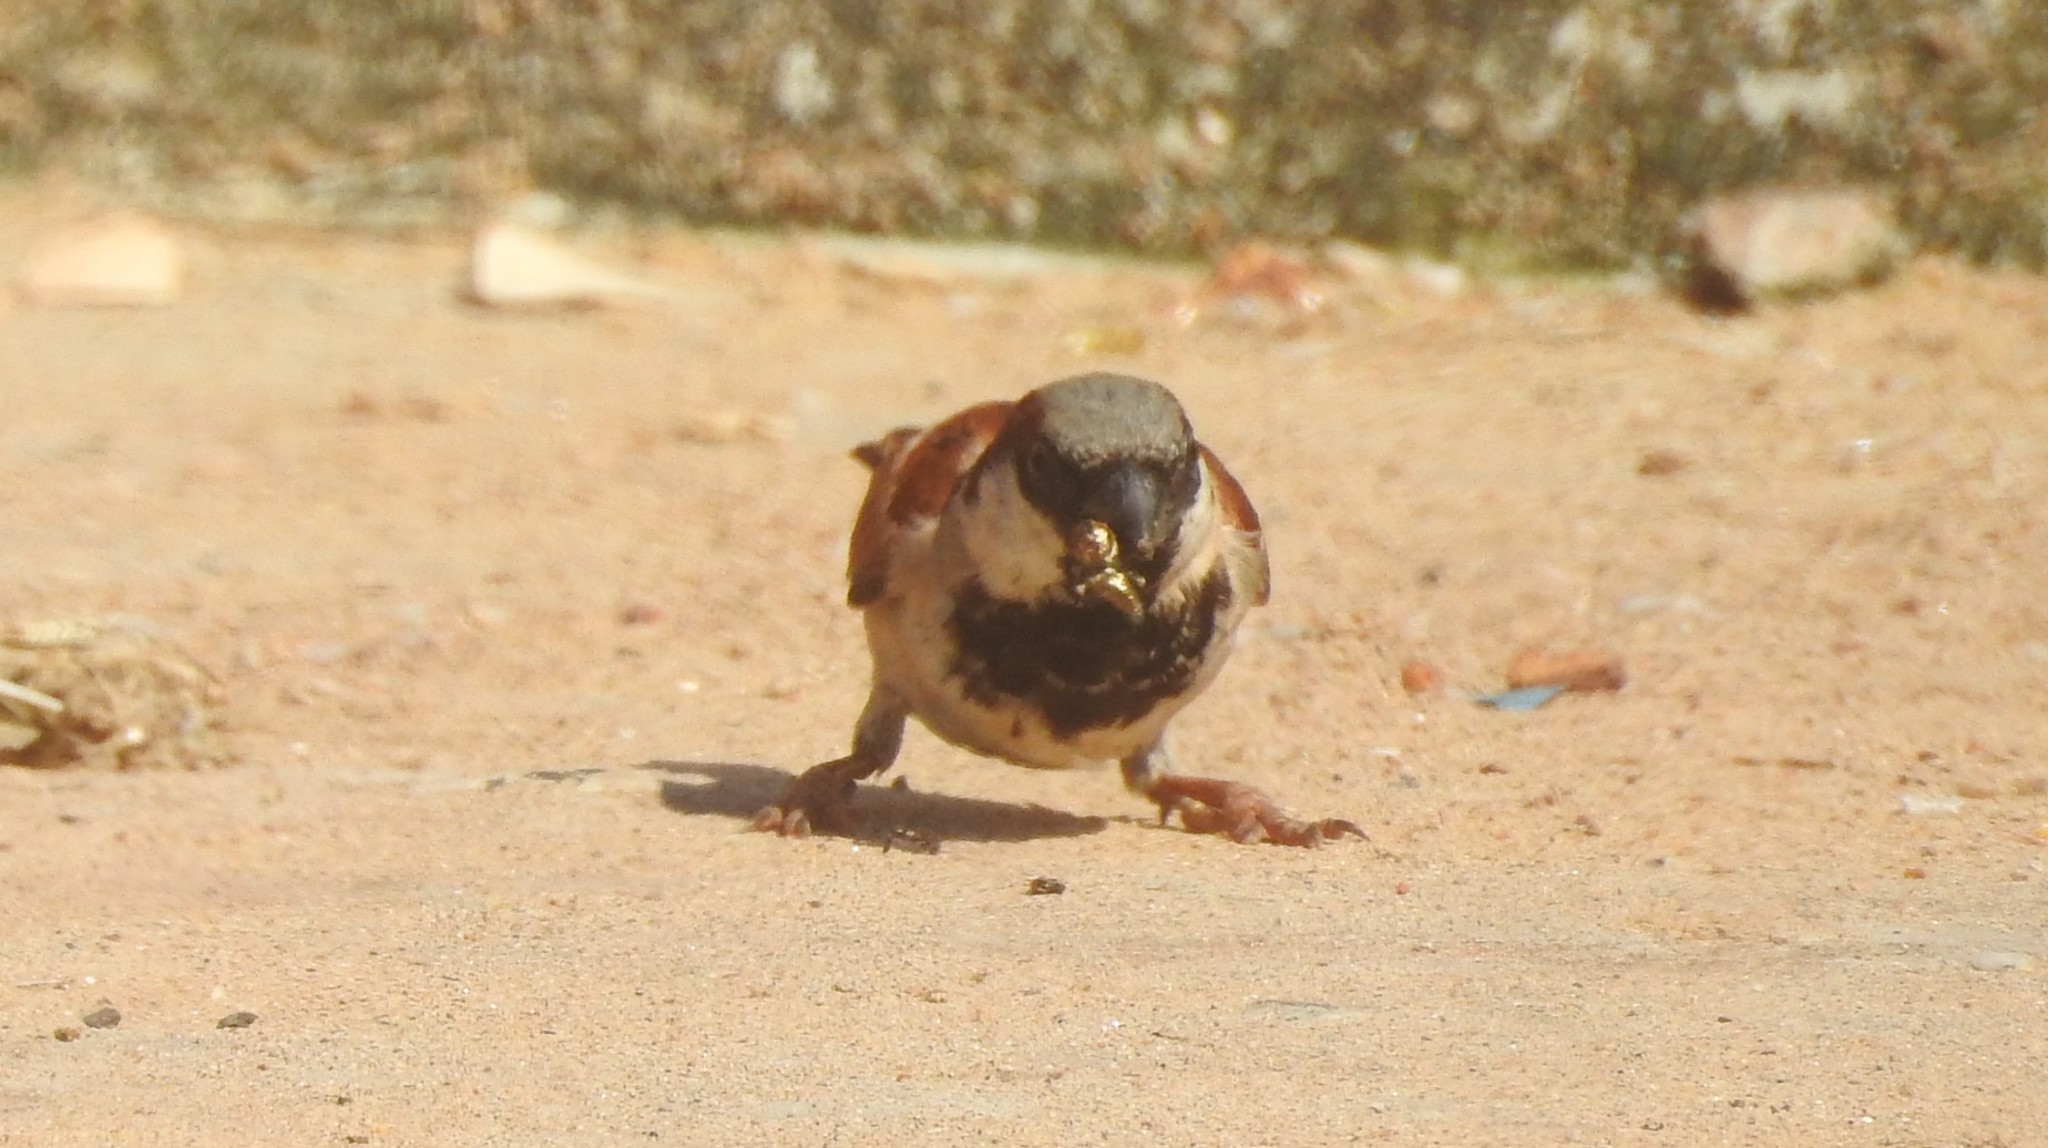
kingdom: Animalia
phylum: Chordata
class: Aves
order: Passeriformes
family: Passeridae
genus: Passer
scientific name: Passer domesticus
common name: House sparrow
